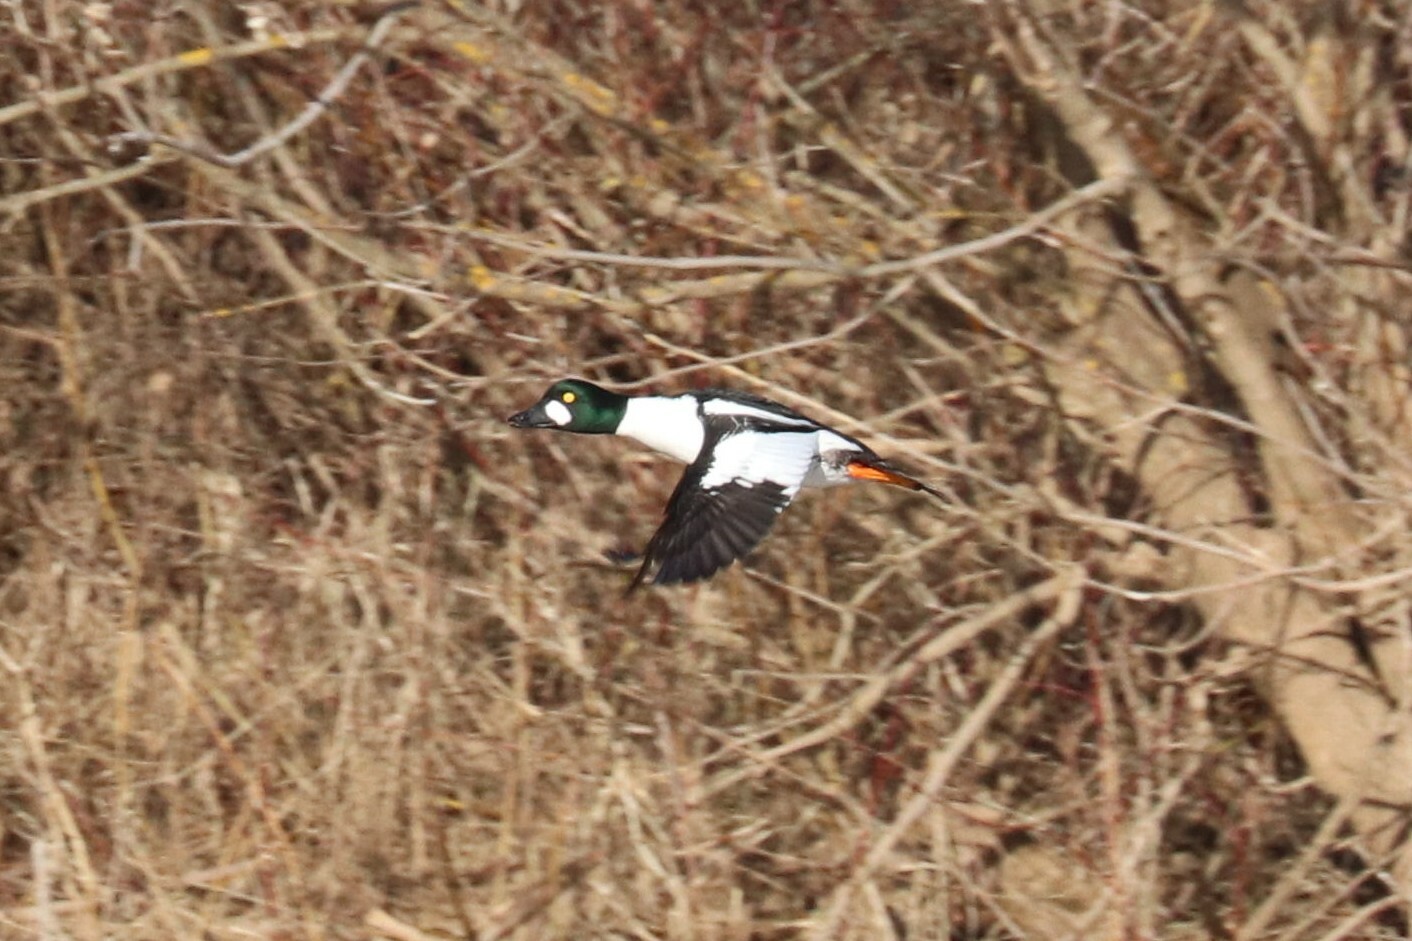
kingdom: Animalia
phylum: Chordata
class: Aves
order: Anseriformes
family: Anatidae
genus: Bucephala
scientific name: Bucephala clangula
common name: Common goldeneye
